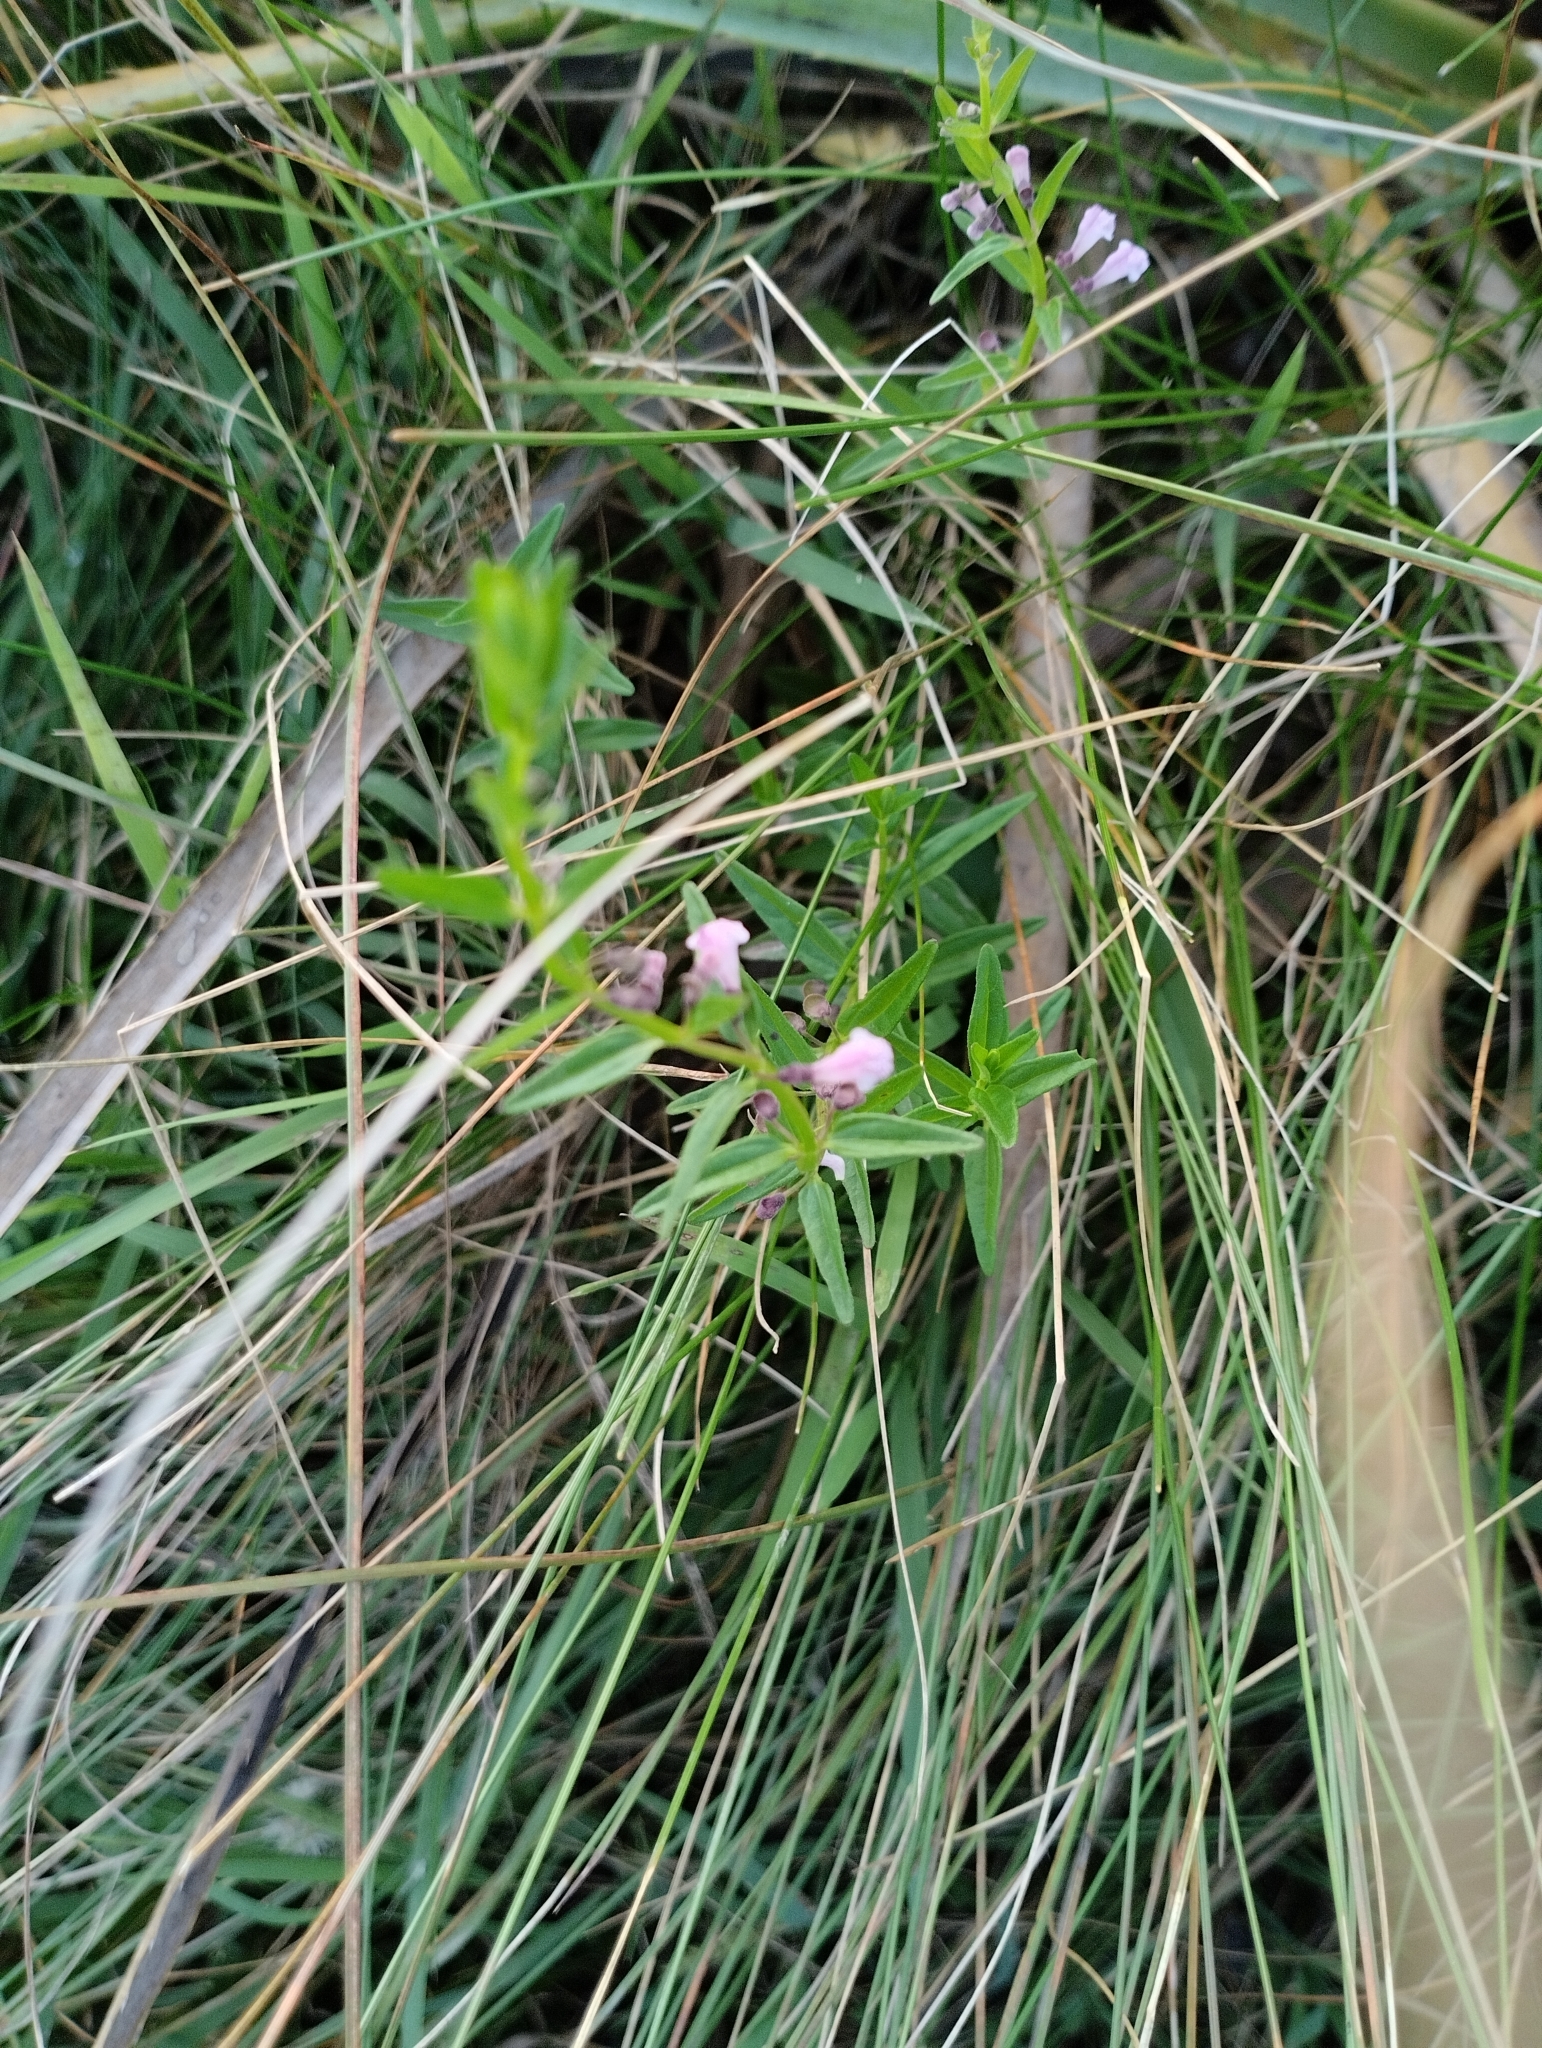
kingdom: Plantae
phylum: Tracheophyta
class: Magnoliopsida
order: Lamiales
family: Lamiaceae
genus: Scutellaria
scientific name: Scutellaria racemosa
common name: South american skullcap
